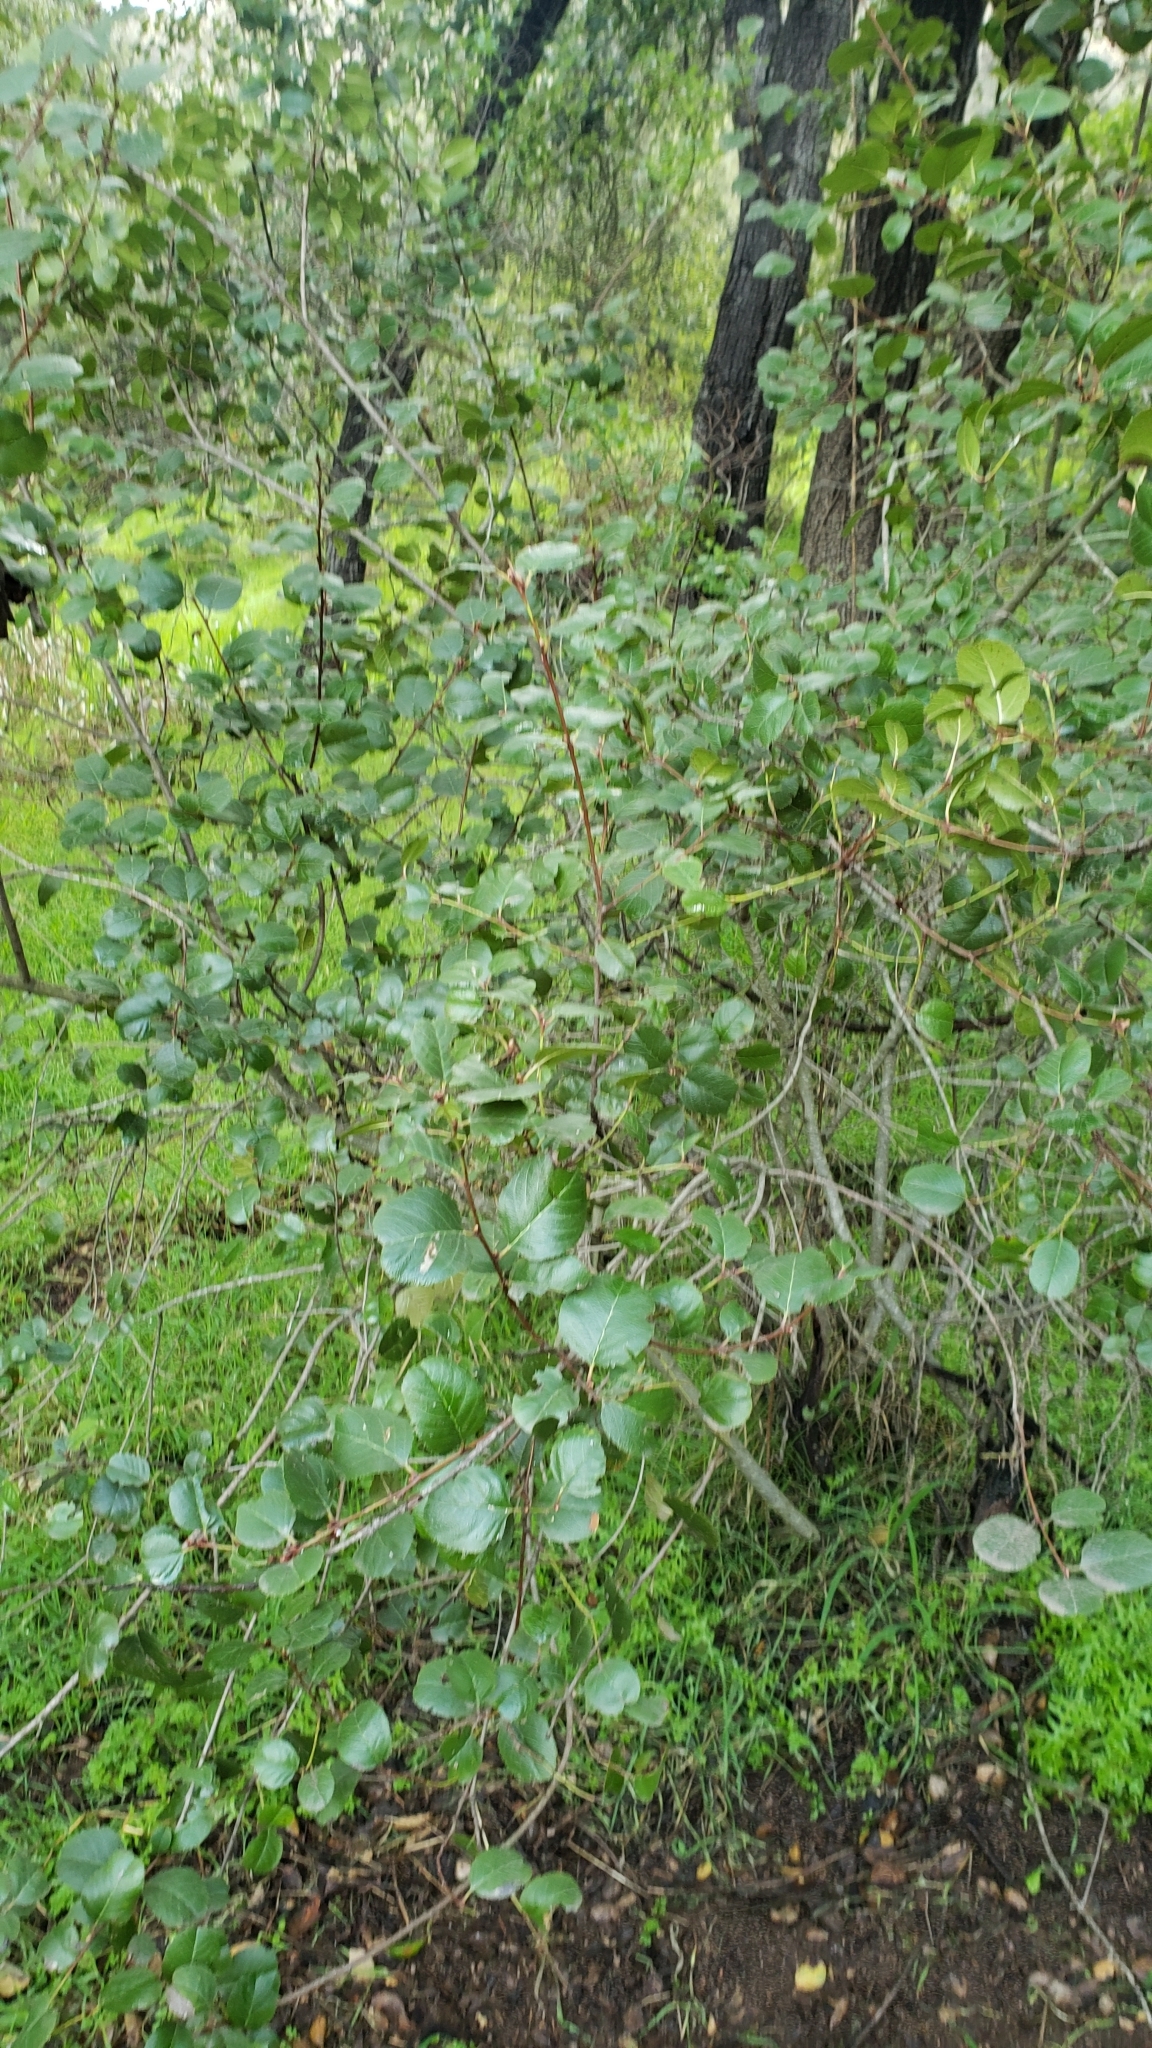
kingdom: Plantae
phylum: Tracheophyta
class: Magnoliopsida
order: Rosales
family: Rhamnaceae
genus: Endotropis
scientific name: Endotropis crocea
